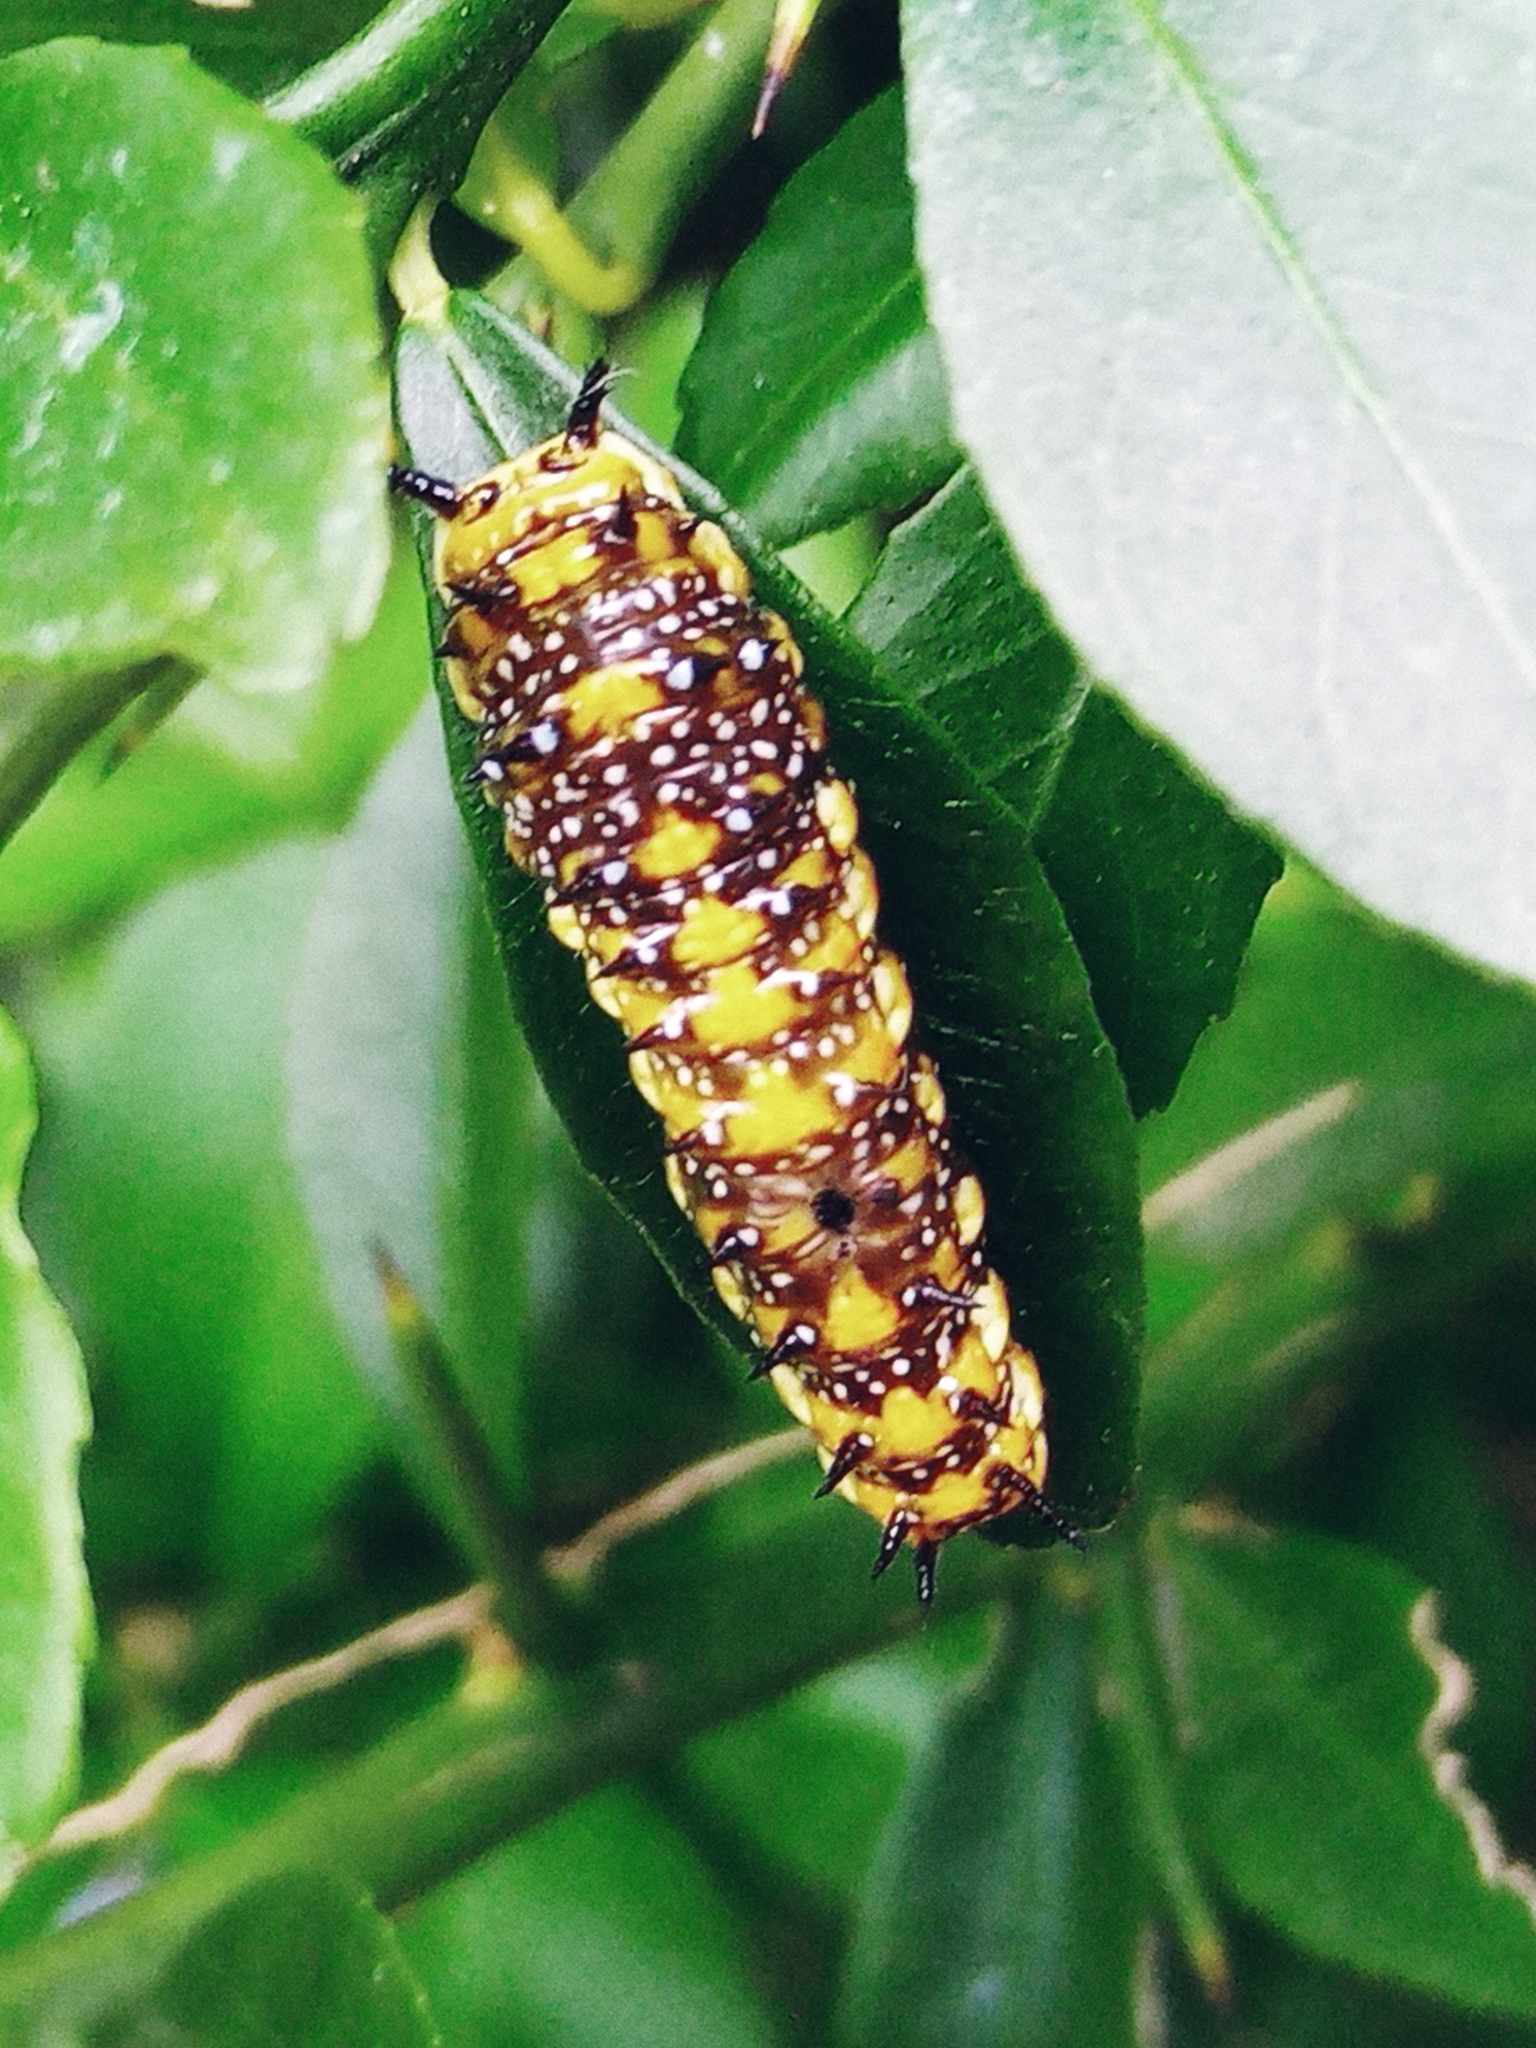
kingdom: Animalia
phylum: Arthropoda
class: Insecta
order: Lepidoptera
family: Papilionidae
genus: Papilio
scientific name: Papilio anactus
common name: Dingy swallowtail
